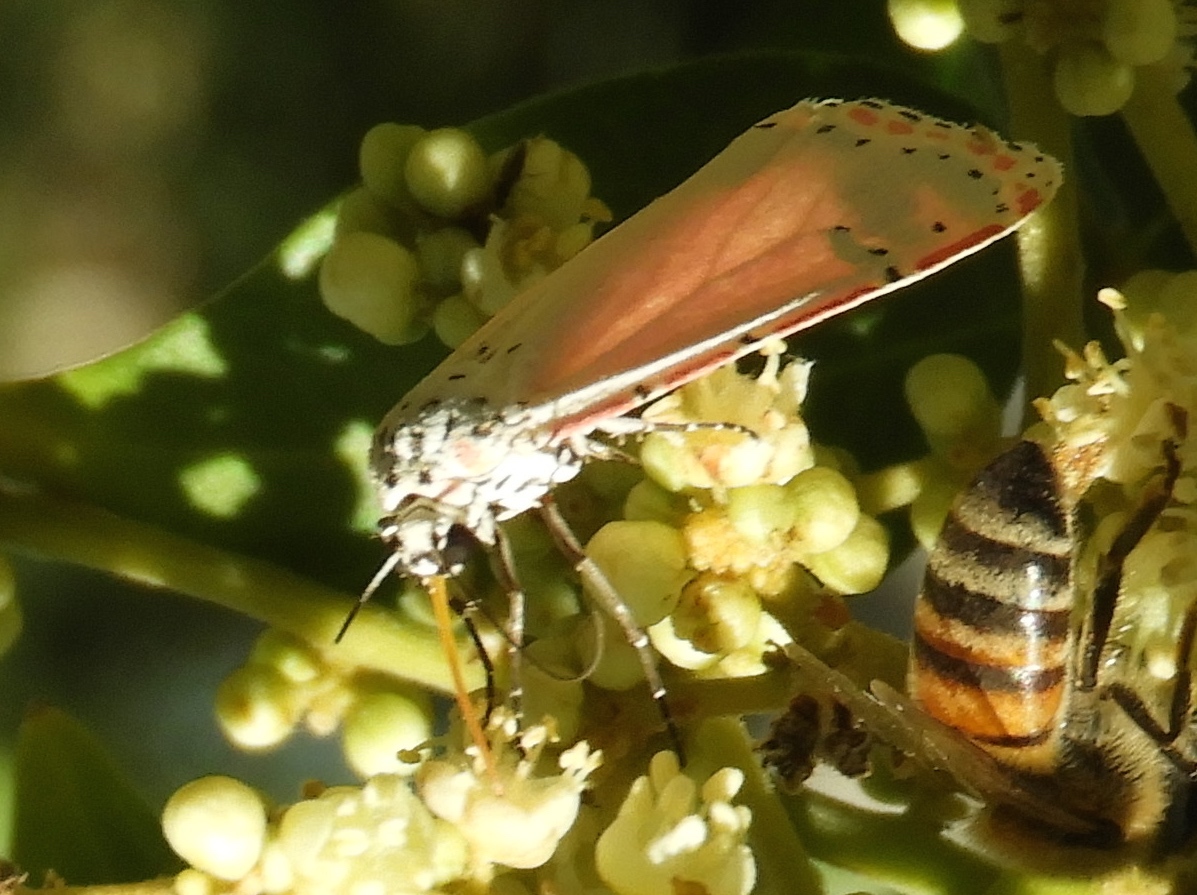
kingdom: Plantae
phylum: Tracheophyta
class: Magnoliopsida
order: Sapindales
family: Sapindaceae
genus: Sapindus
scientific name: Sapindus drummondii
